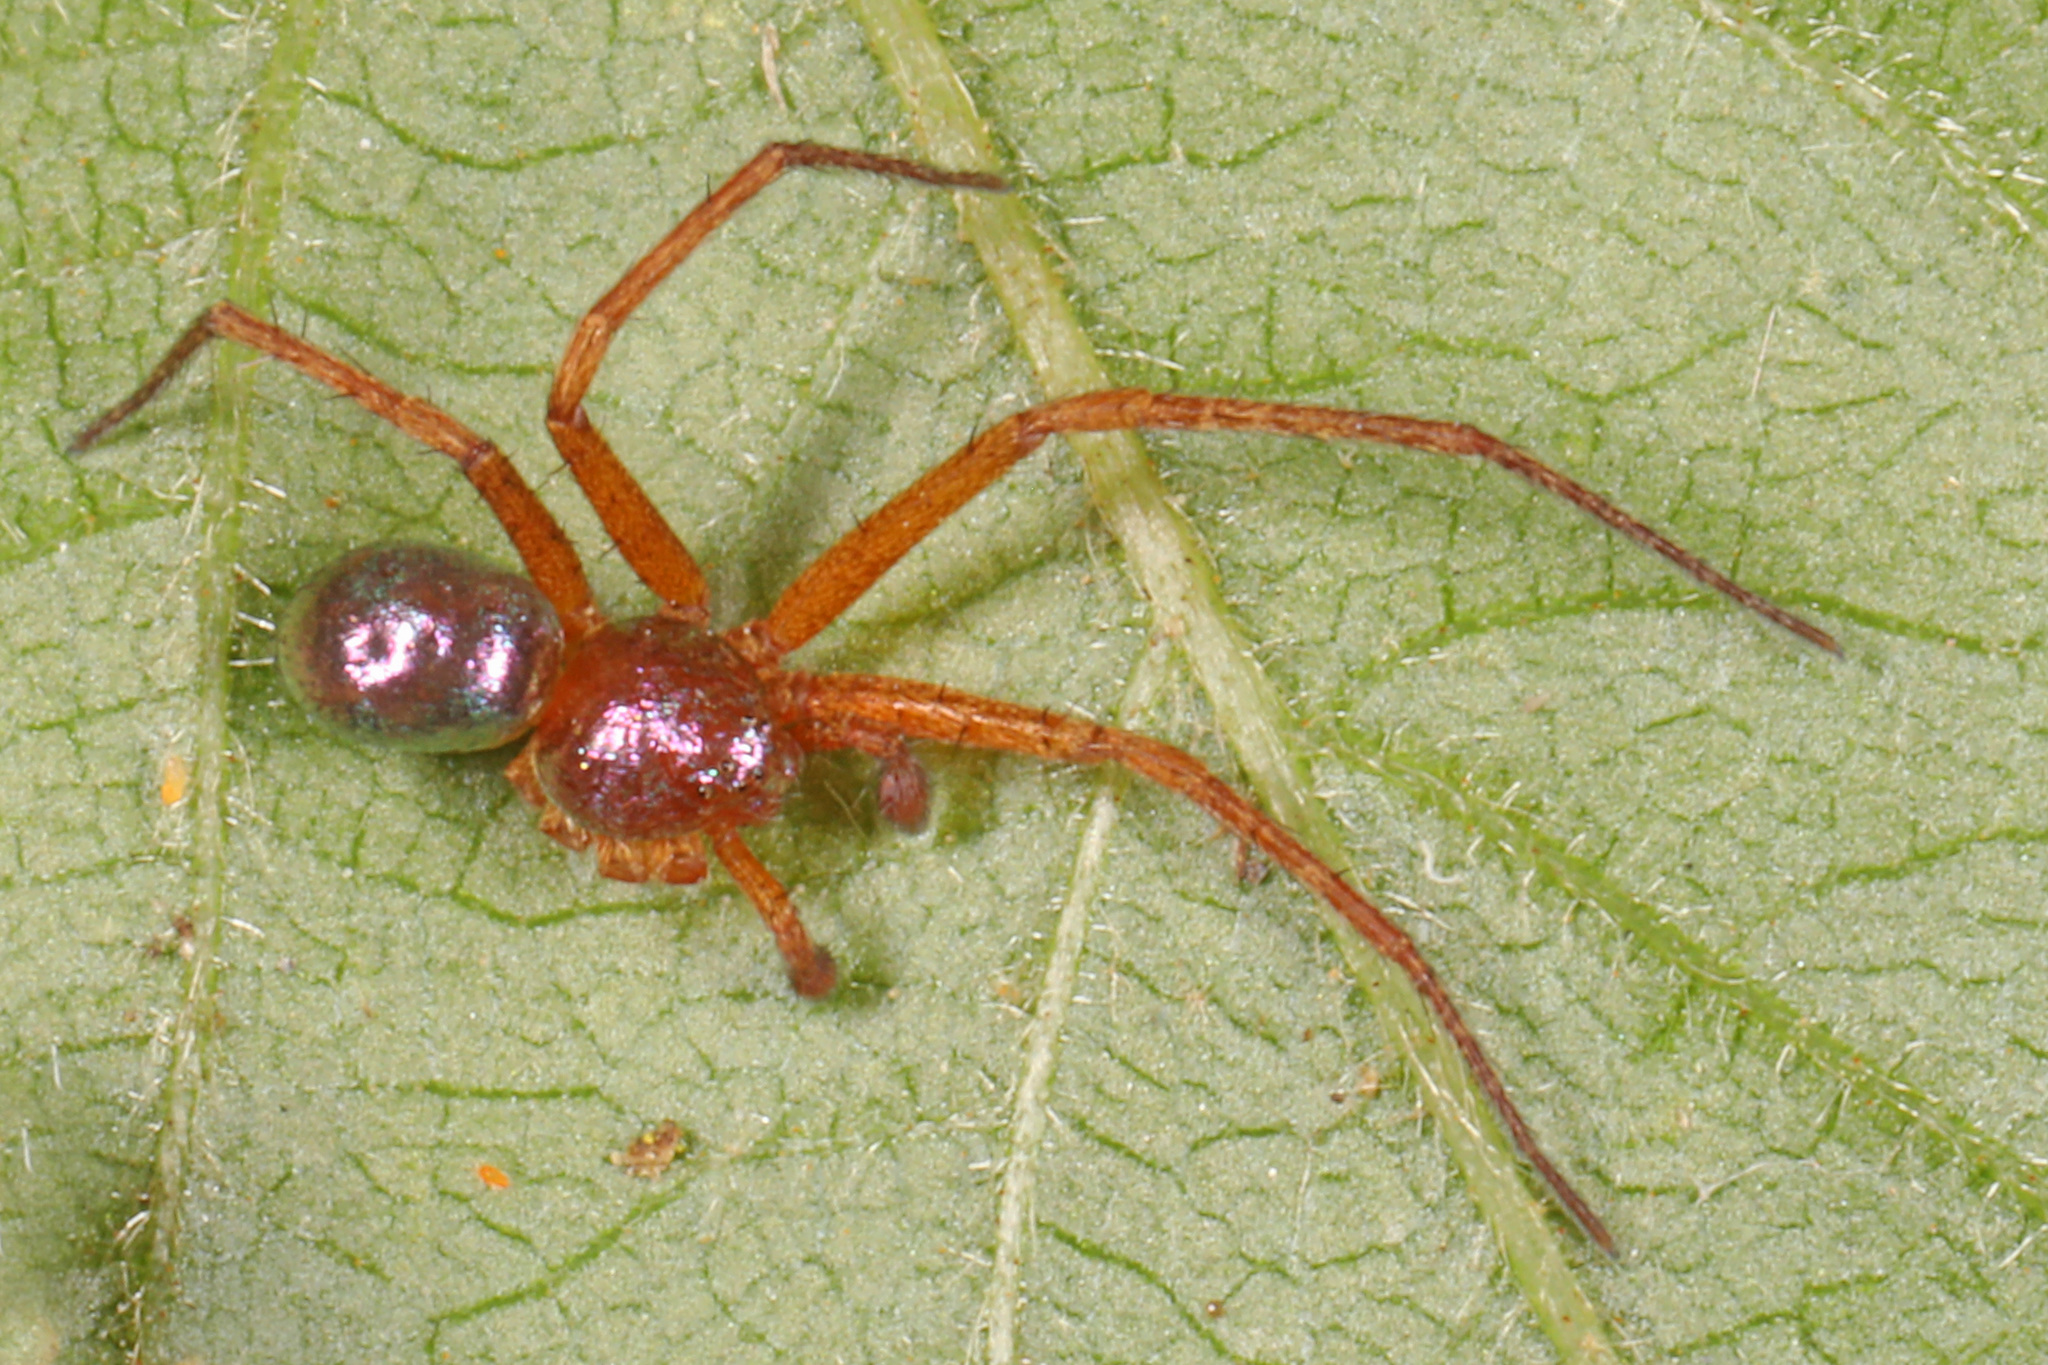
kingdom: Animalia
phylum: Arthropoda
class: Arachnida
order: Araneae
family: Philodromidae
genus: Philodromus
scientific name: Philodromus marxi
